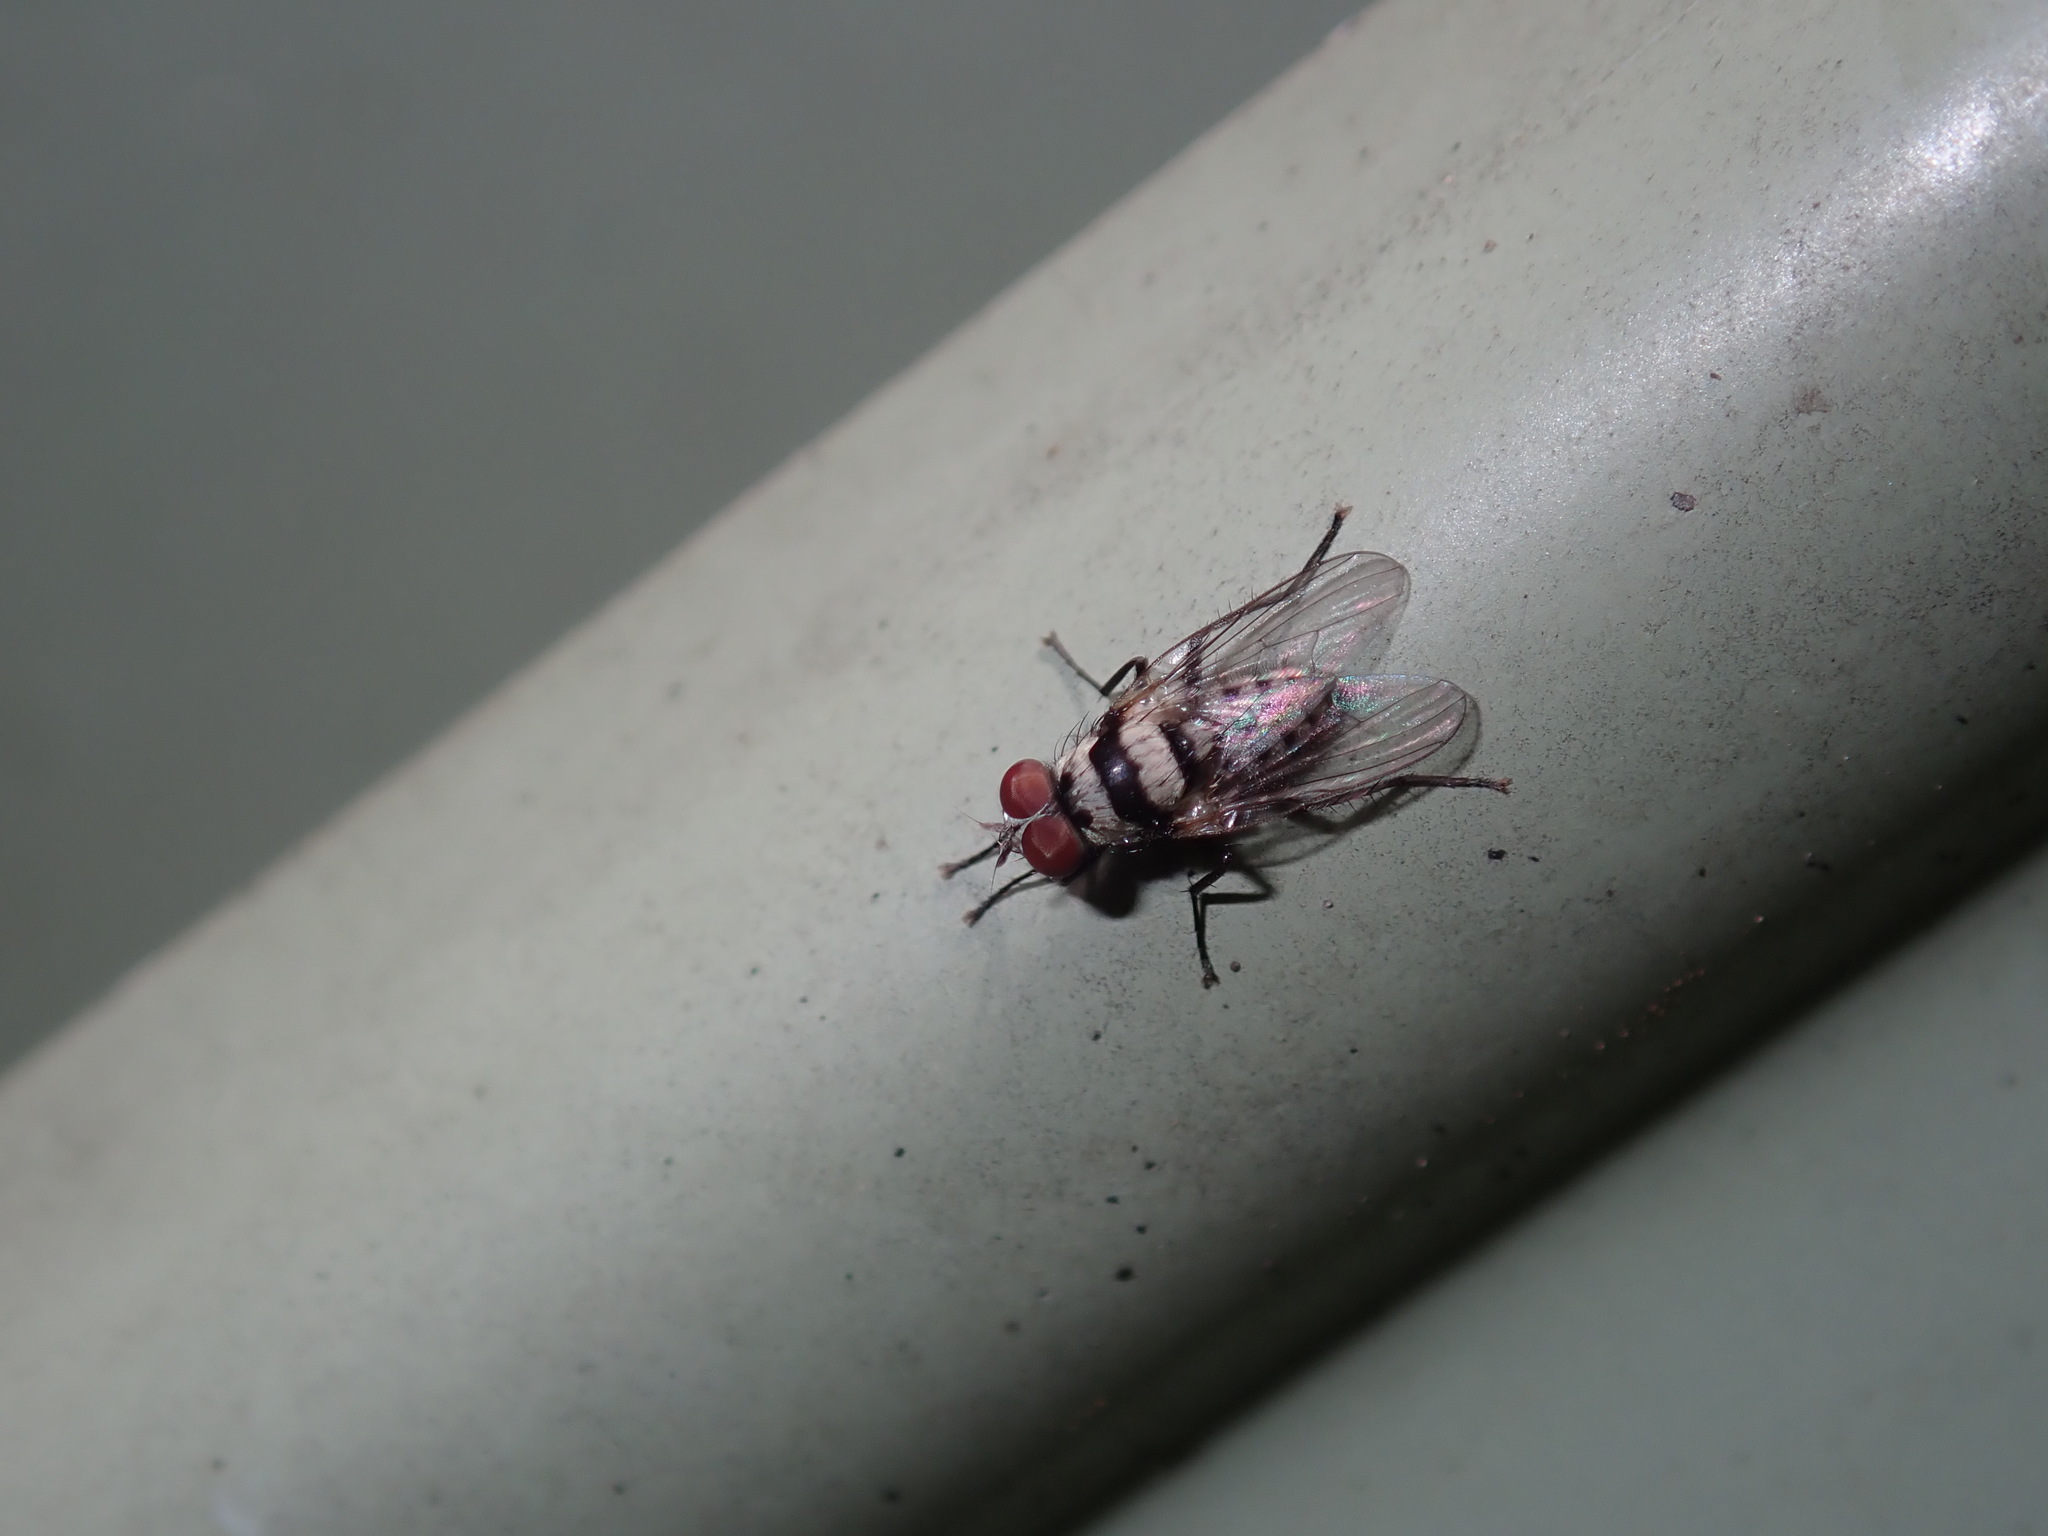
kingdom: Animalia
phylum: Arthropoda
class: Insecta
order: Diptera
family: Anthomyiidae
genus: Anthomyia
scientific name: Anthomyia vicarians
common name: Fly
